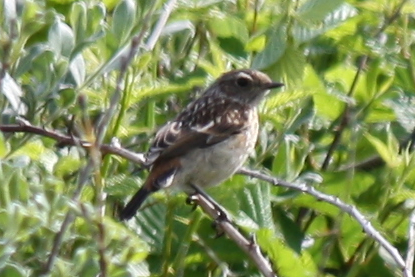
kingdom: Animalia
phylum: Chordata
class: Aves
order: Passeriformes
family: Muscicapidae
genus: Saxicola
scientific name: Saxicola rubicola
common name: European stonechat
